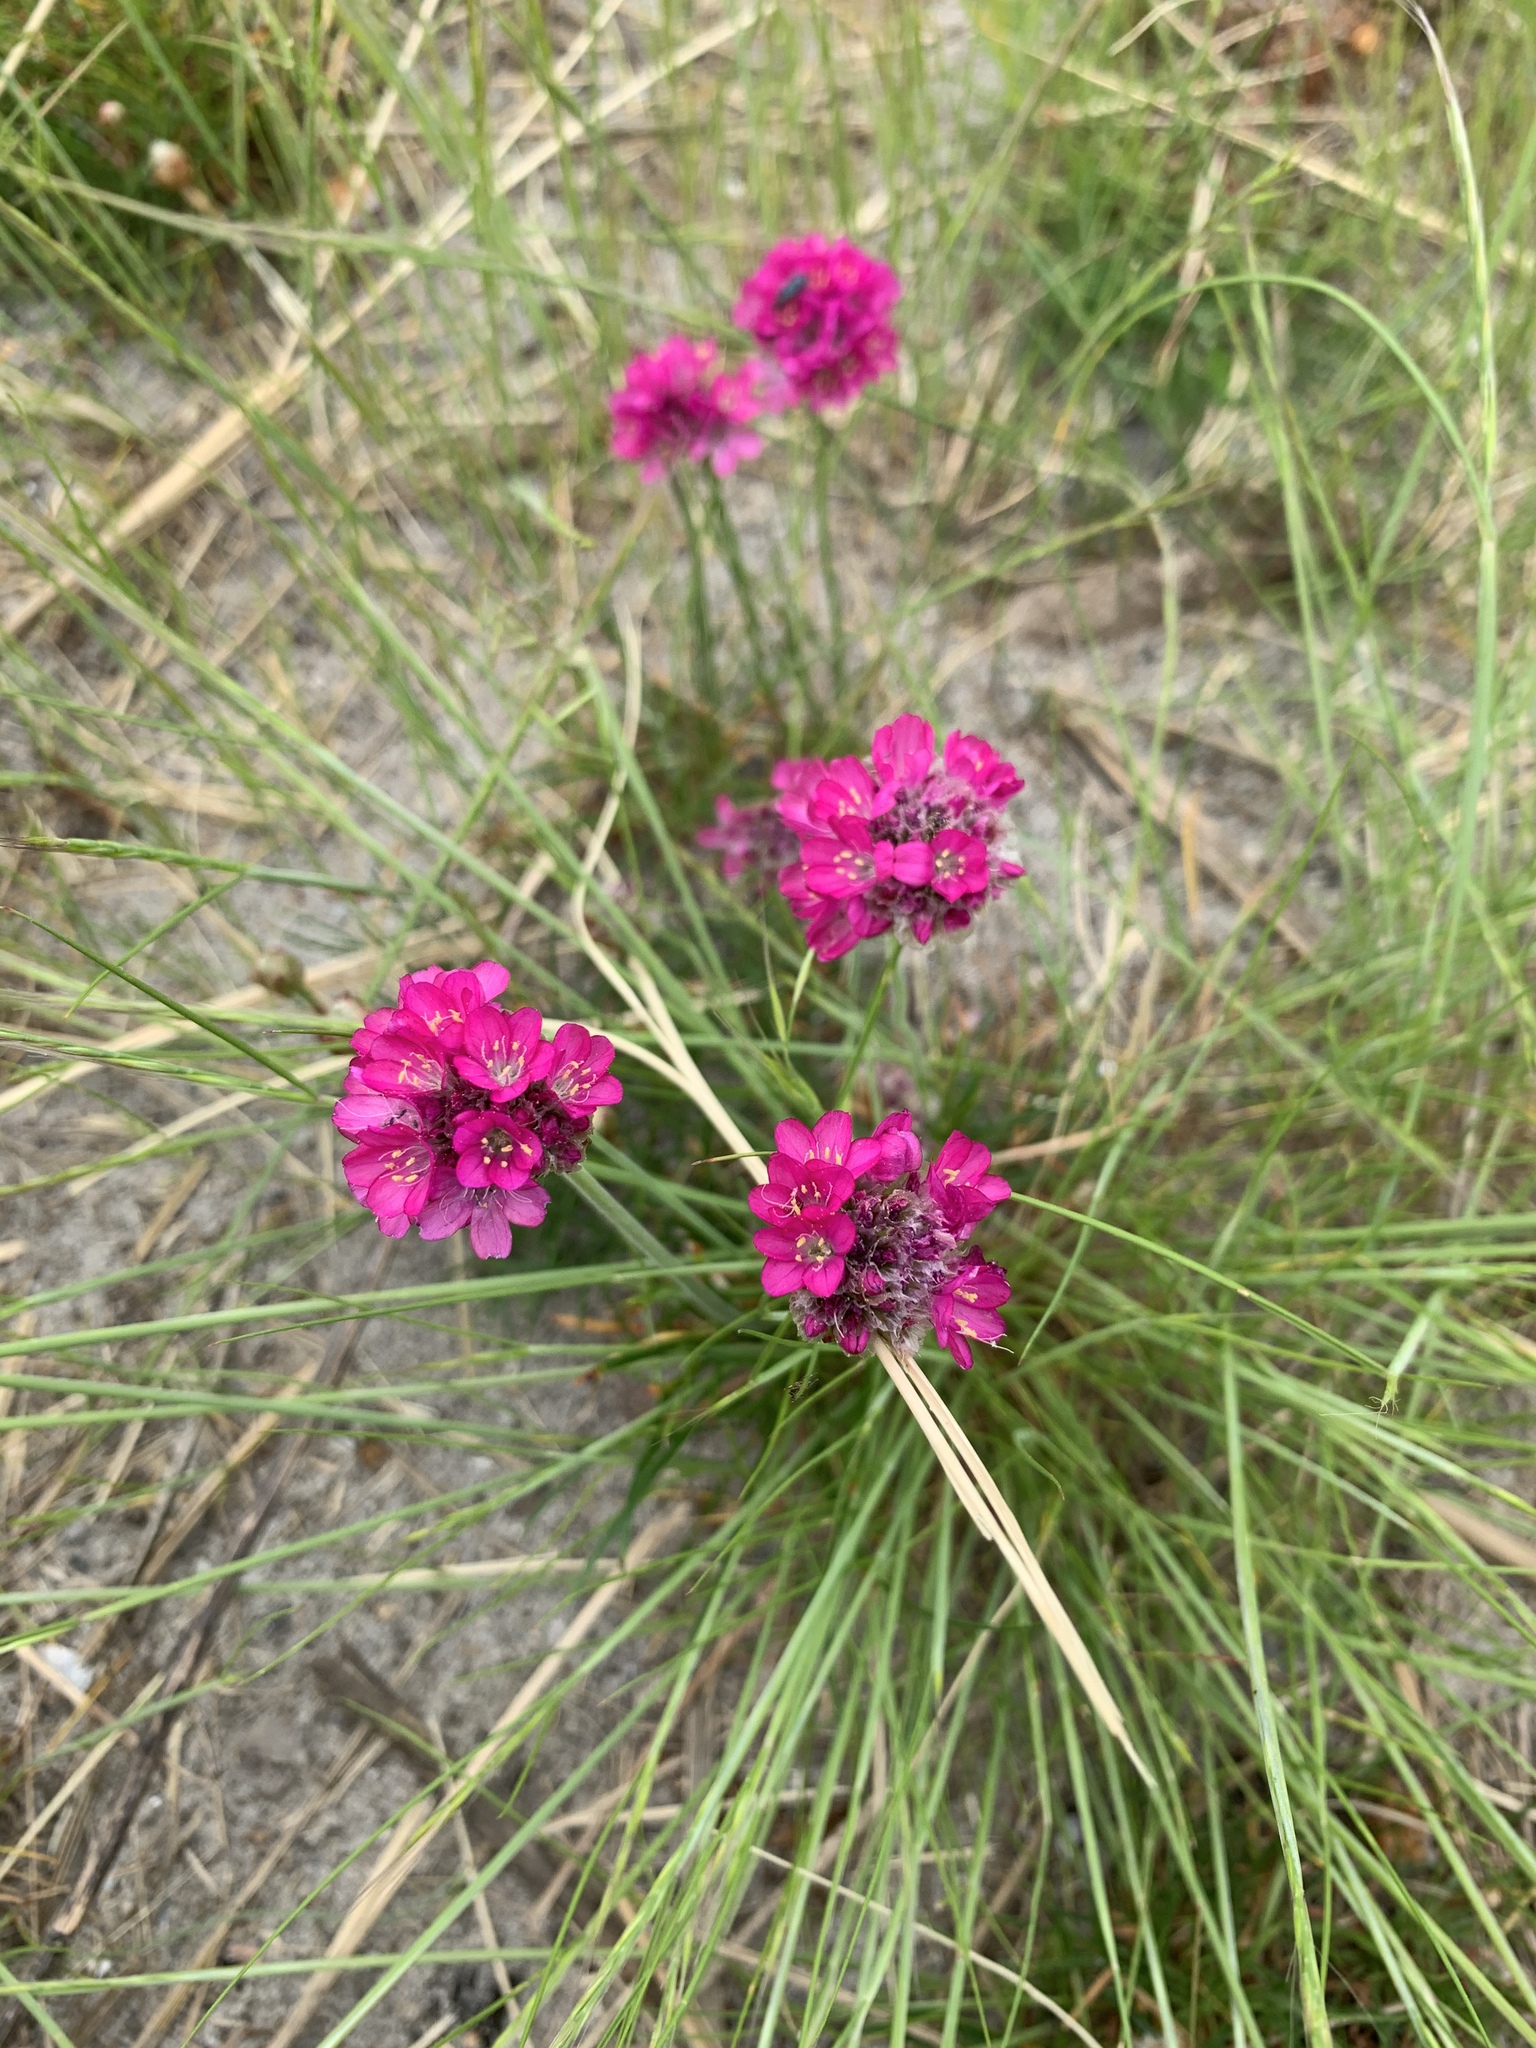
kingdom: Plantae
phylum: Tracheophyta
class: Magnoliopsida
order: Caryophyllales
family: Plumbaginaceae
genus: Armeria
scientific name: Armeria maritima
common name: Thrift
